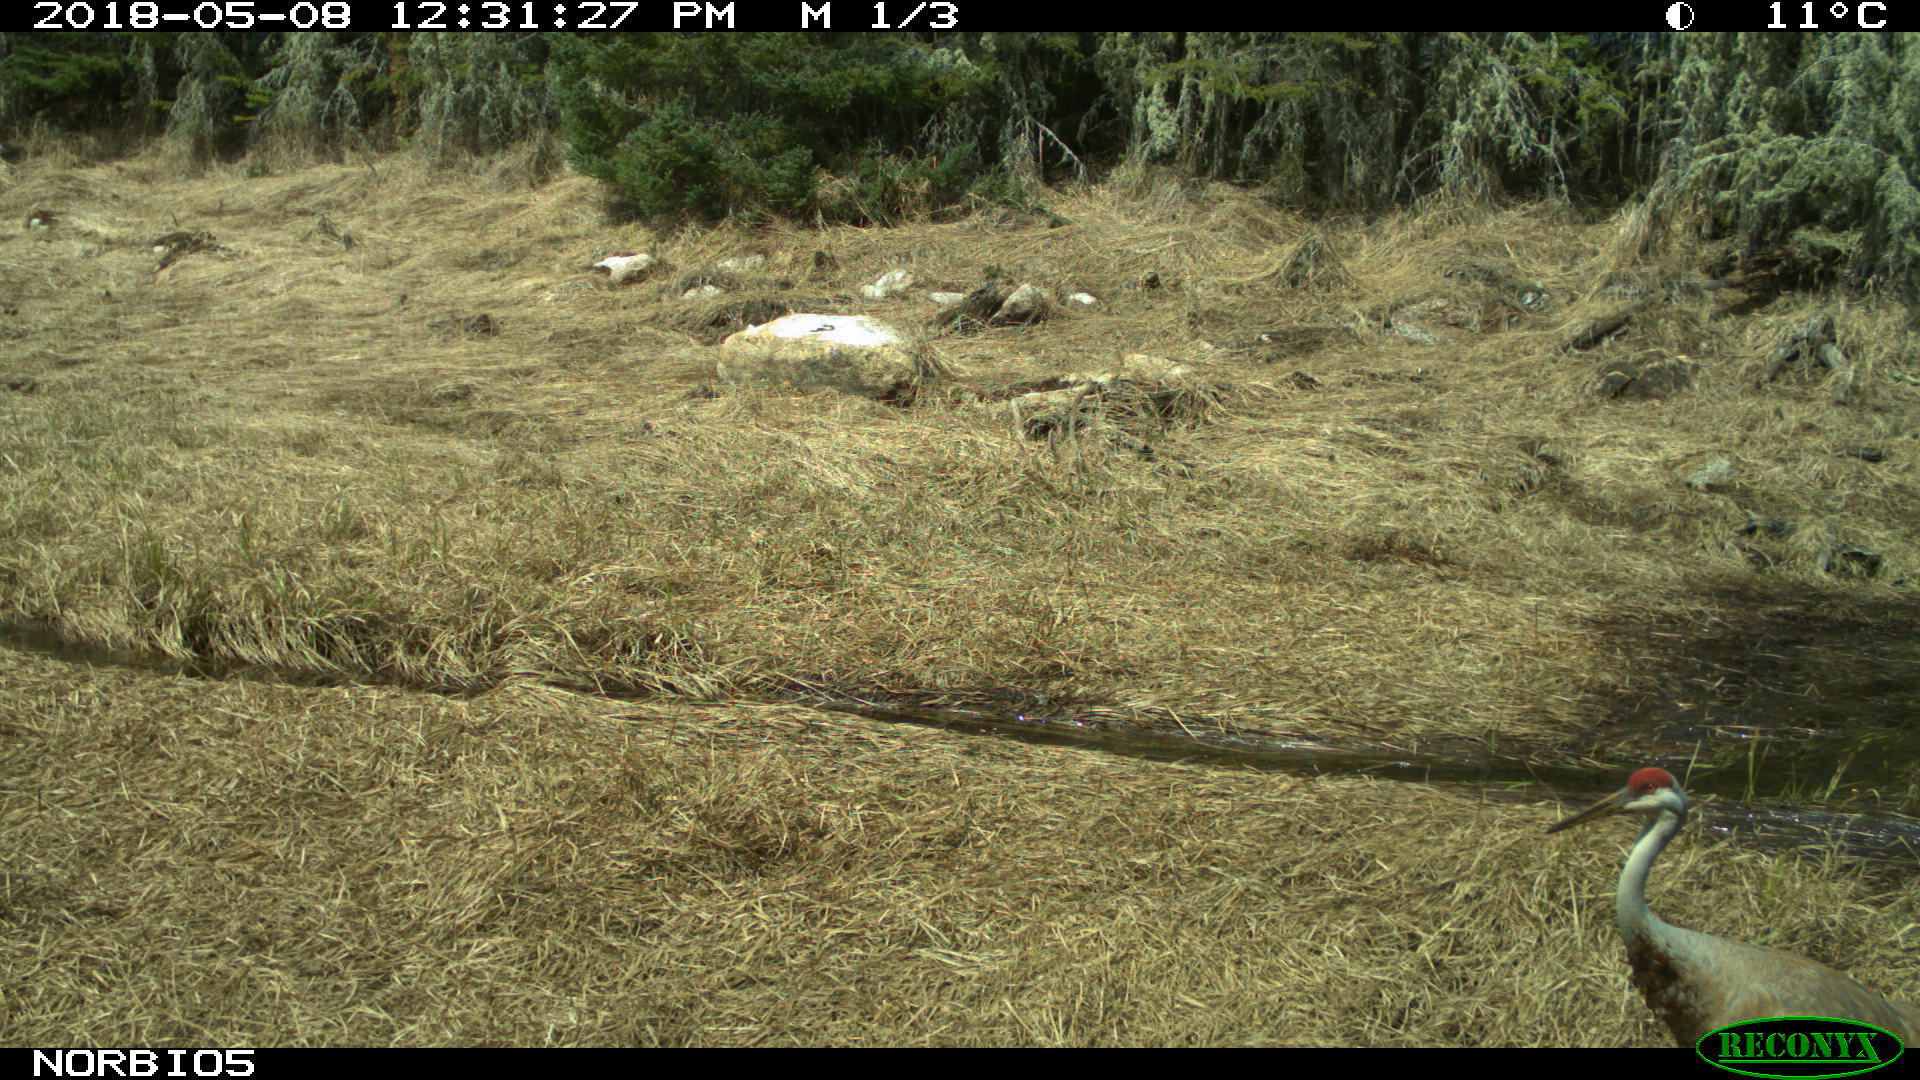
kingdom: Animalia
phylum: Chordata
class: Aves
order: Gruiformes
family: Gruidae
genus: Grus
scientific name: Grus canadensis
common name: Sandhill crane
